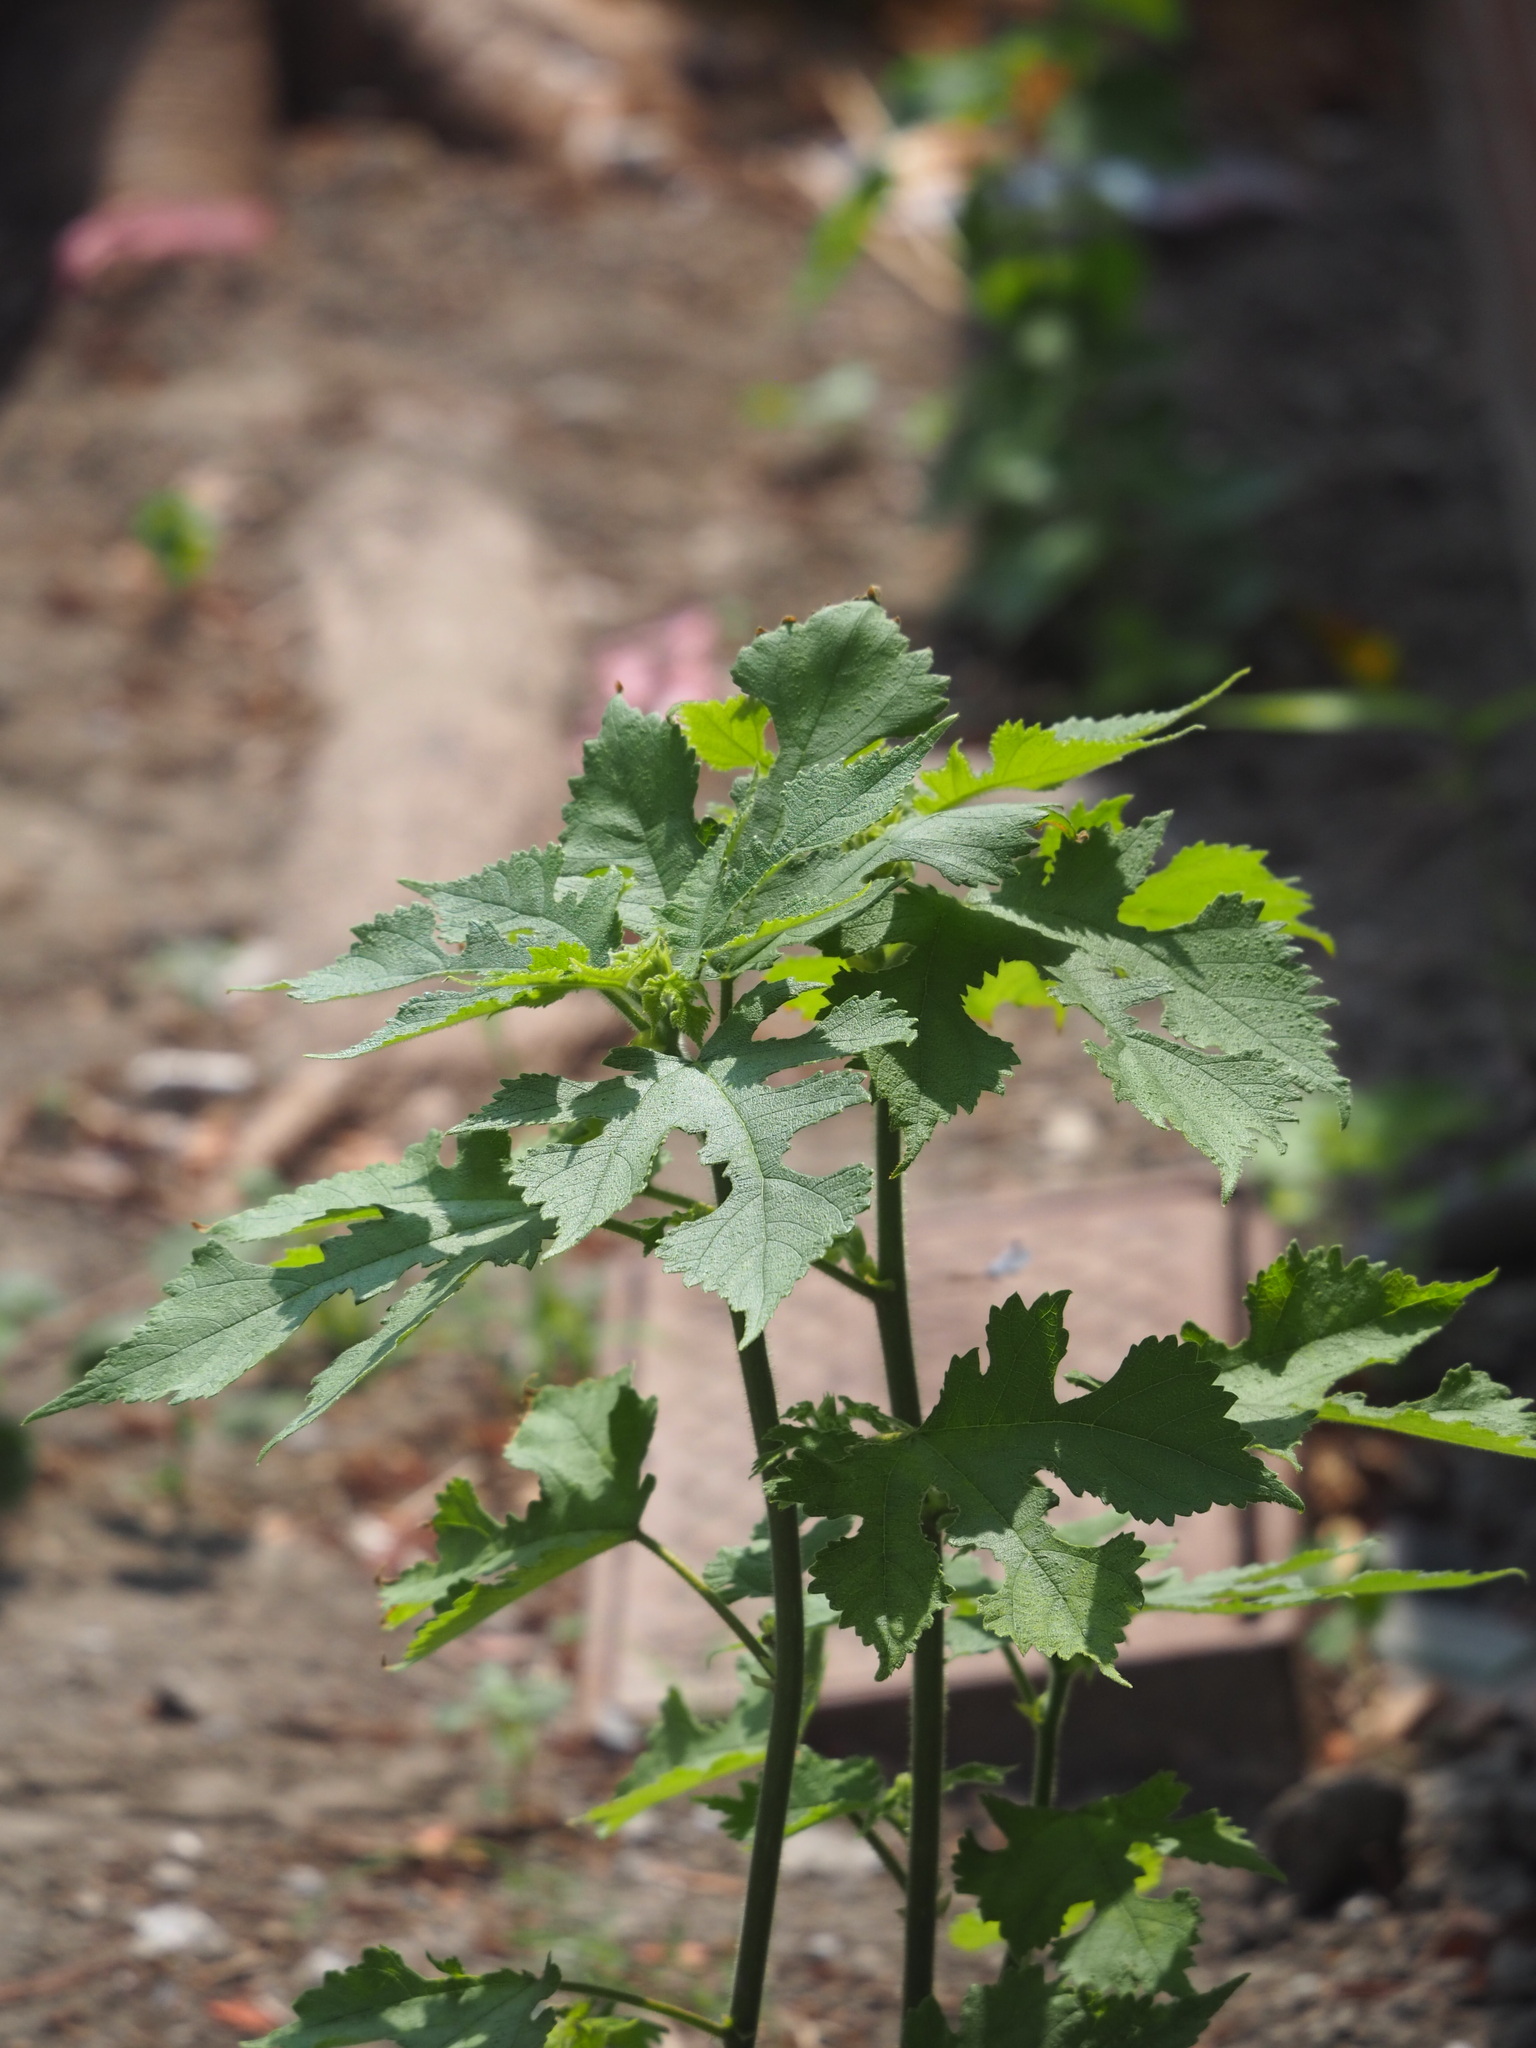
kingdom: Plantae
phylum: Tracheophyta
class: Magnoliopsida
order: Rosales
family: Moraceae
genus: Broussonetia
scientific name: Broussonetia papyrifera
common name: Paper mulberry
